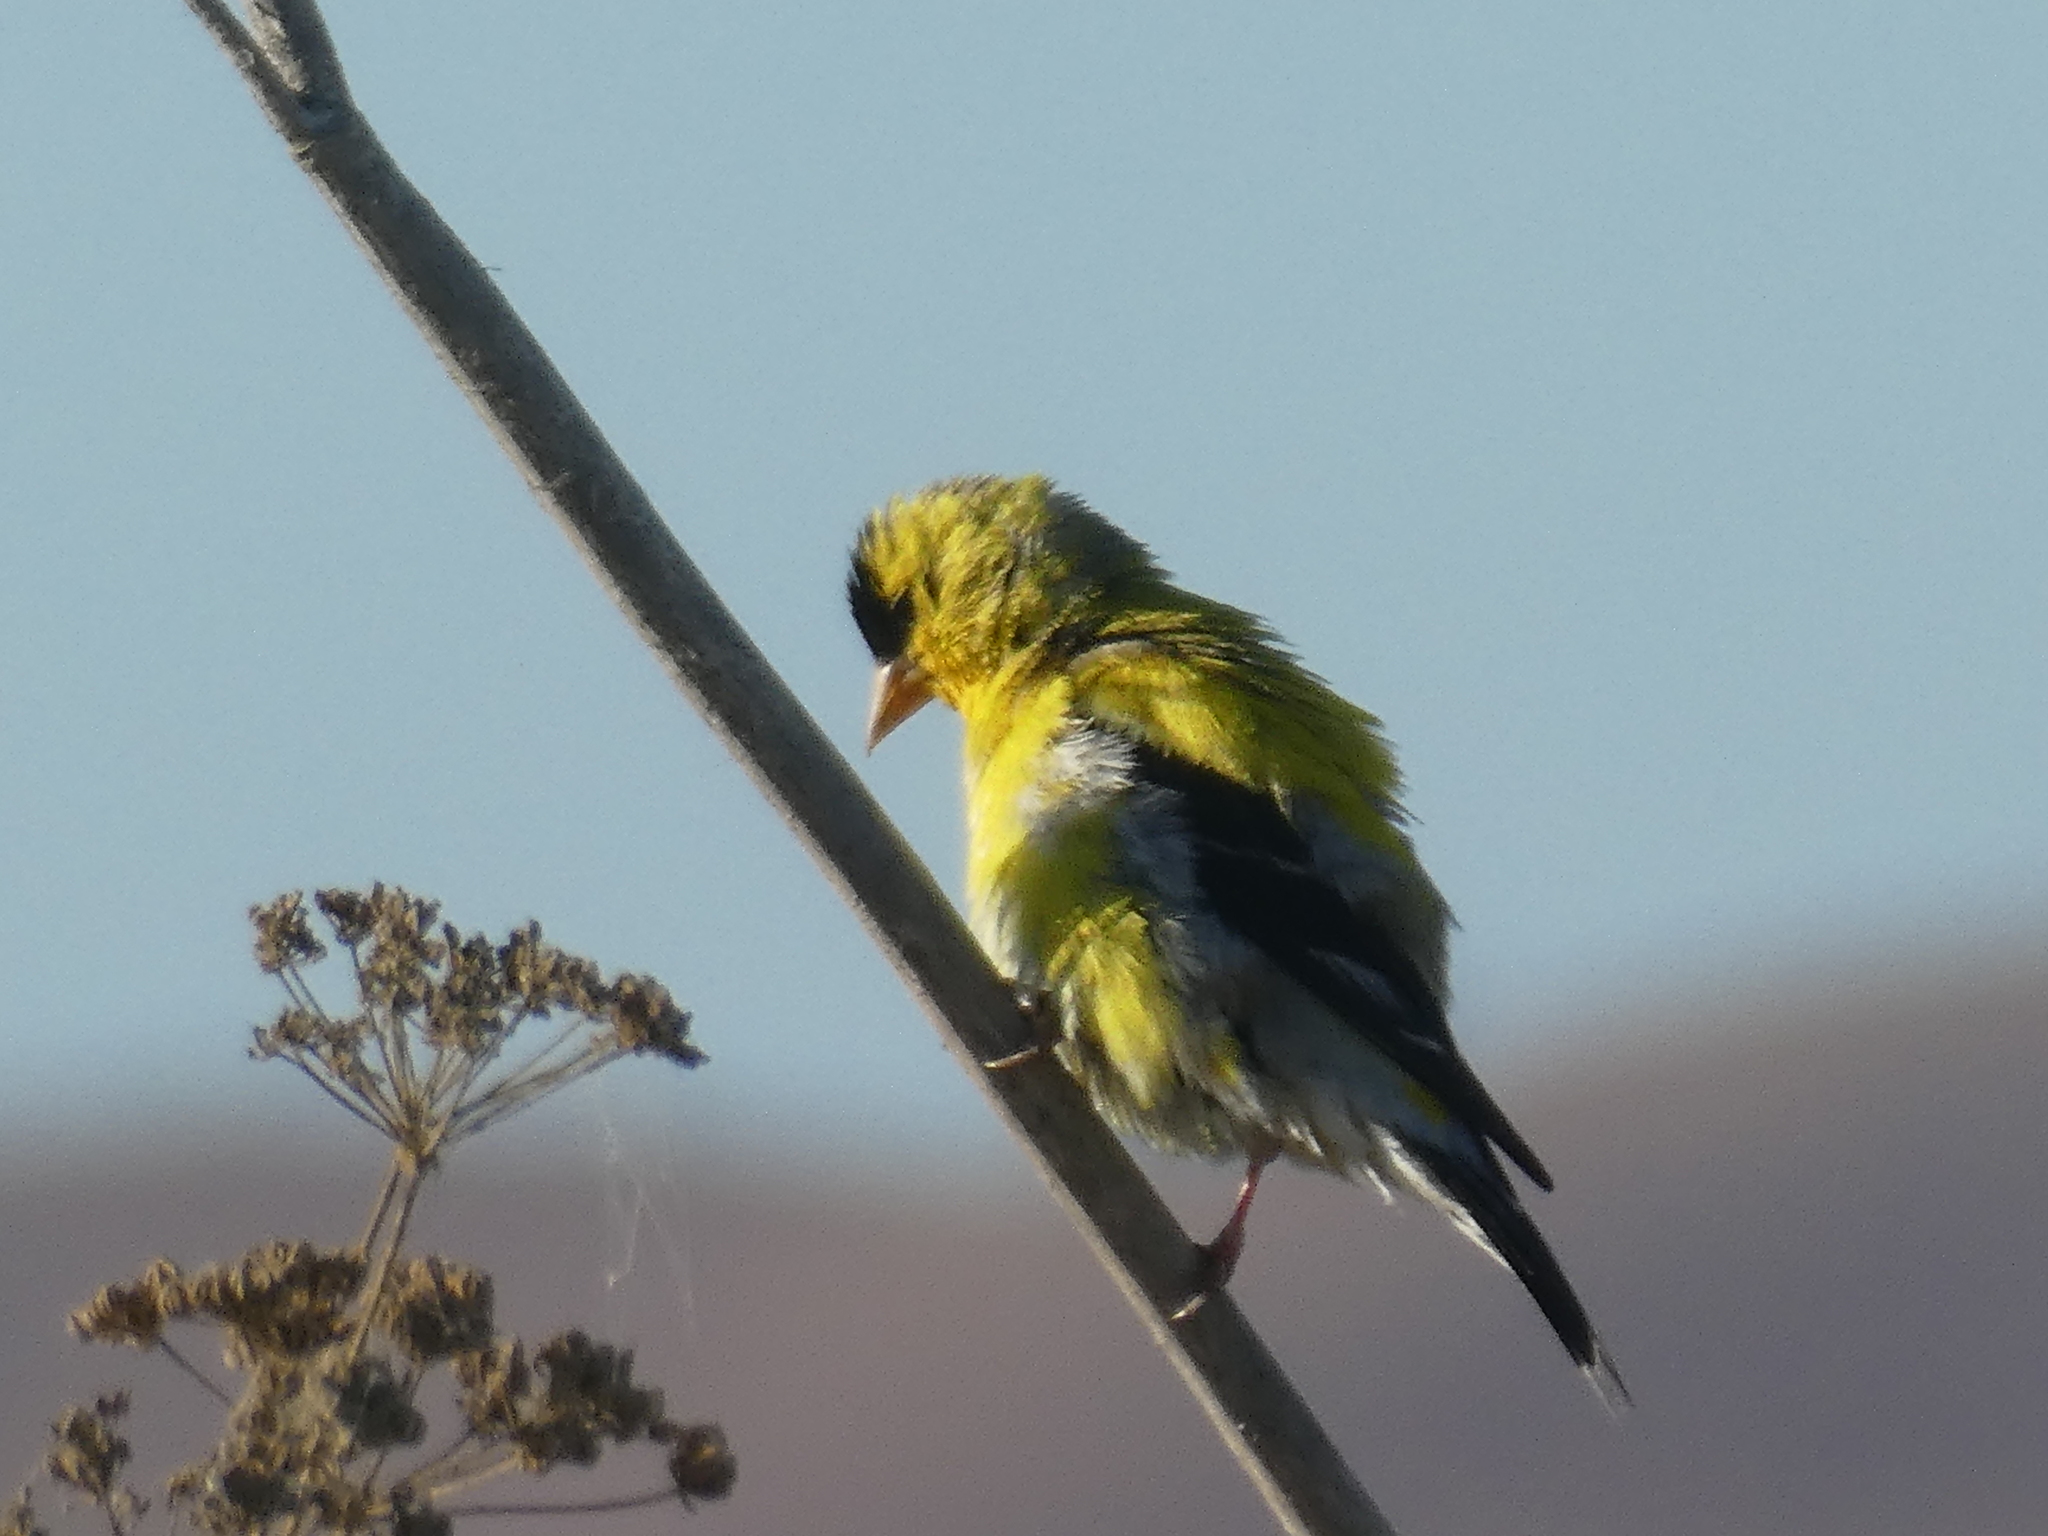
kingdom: Animalia
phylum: Chordata
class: Aves
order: Passeriformes
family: Fringillidae
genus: Spinus
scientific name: Spinus tristis
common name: American goldfinch
